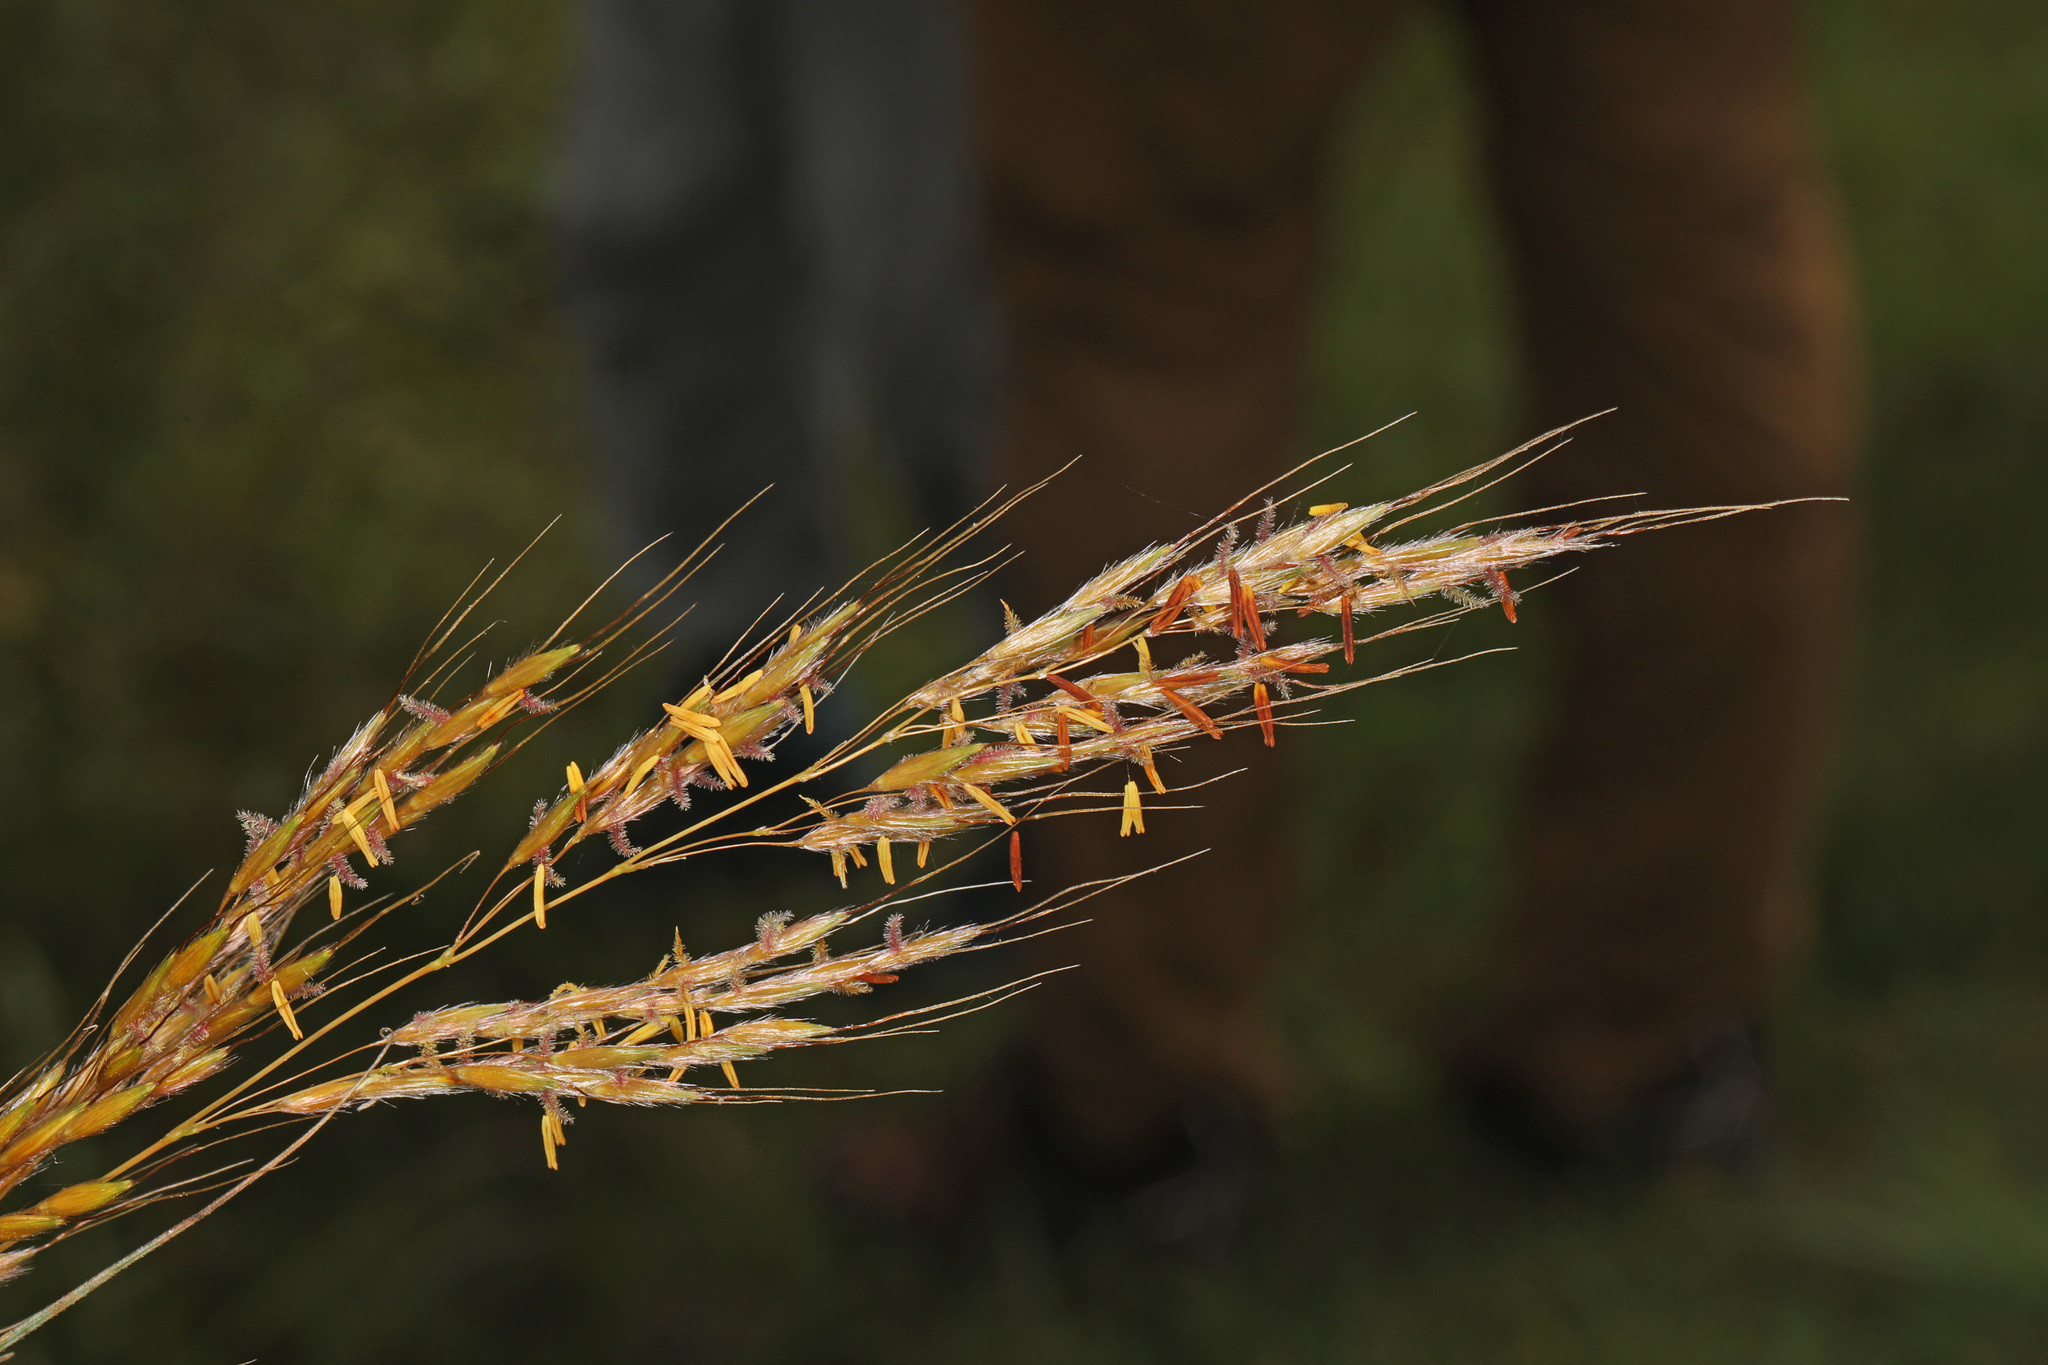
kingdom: Plantae
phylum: Tracheophyta
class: Liliopsida
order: Poales
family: Poaceae
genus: Sorghastrum
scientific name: Sorghastrum nutans
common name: Indian grass
